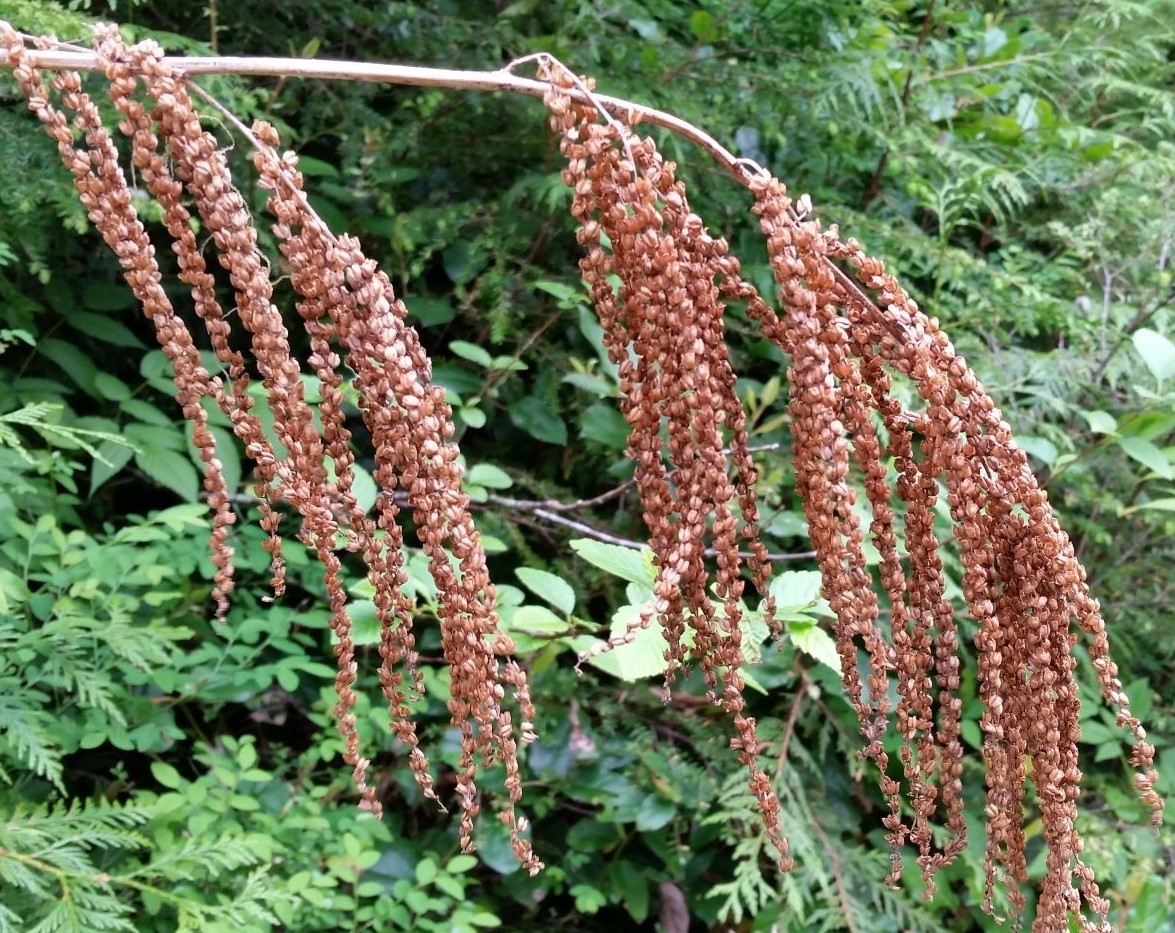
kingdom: Plantae
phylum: Tracheophyta
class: Magnoliopsida
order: Rosales
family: Rosaceae
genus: Aruncus
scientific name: Aruncus dioicus
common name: Buck's-beard
